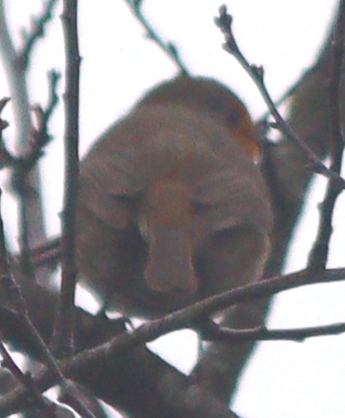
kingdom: Animalia
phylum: Chordata
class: Aves
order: Passeriformes
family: Muscicapidae
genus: Erithacus
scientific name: Erithacus rubecula
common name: European robin
